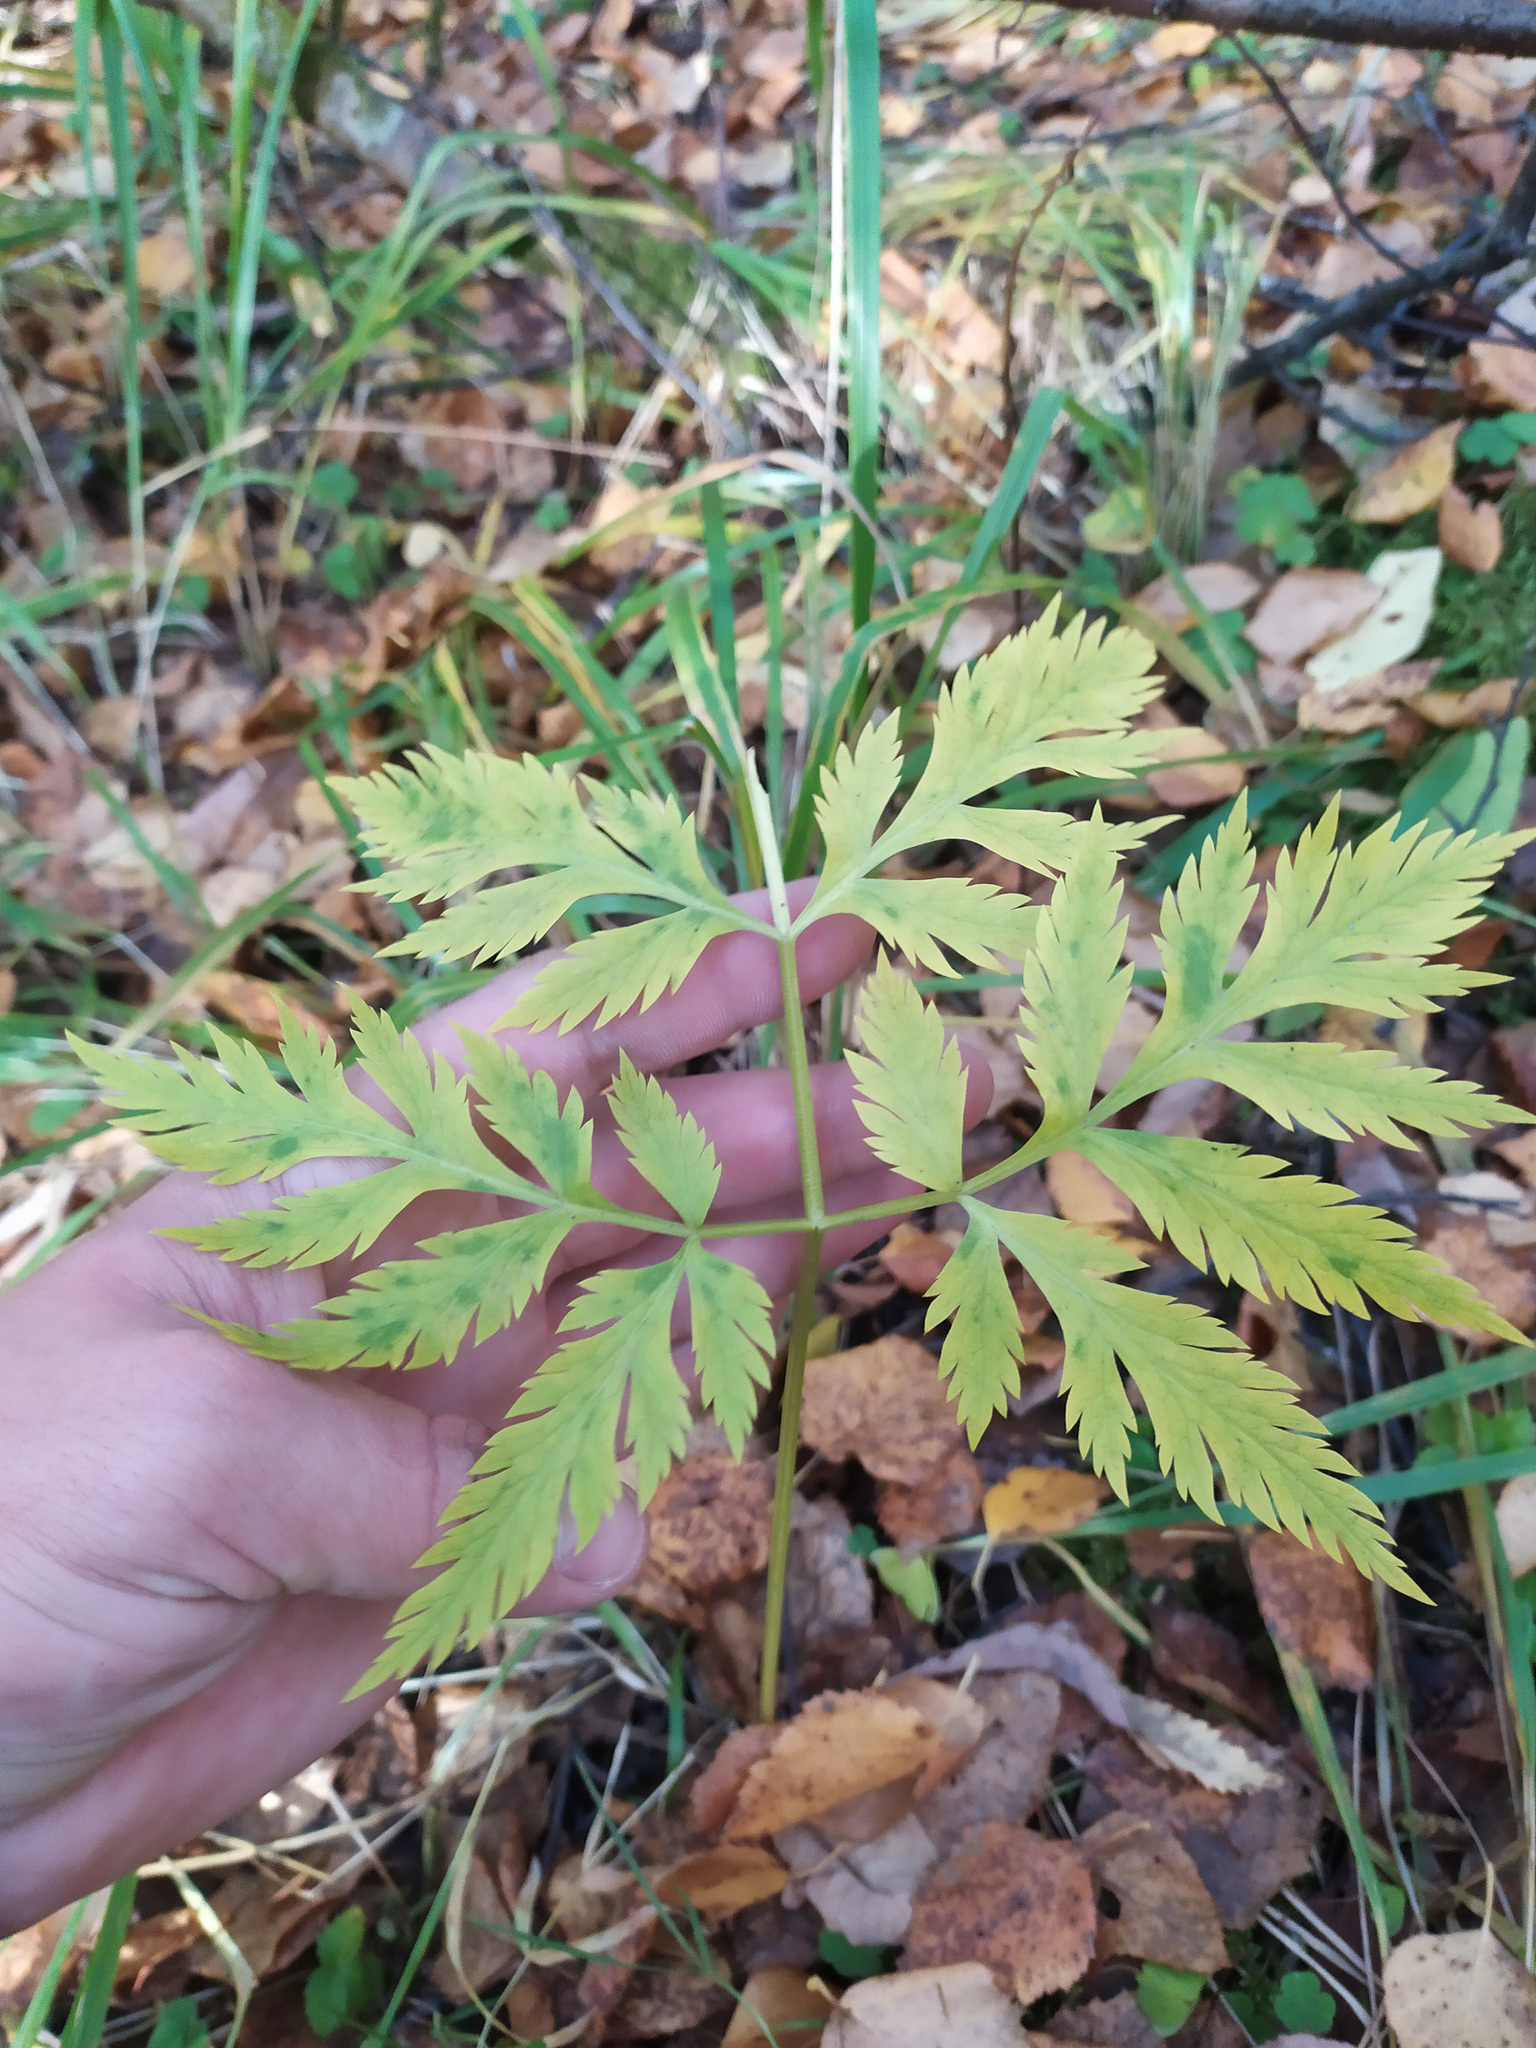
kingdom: Plantae
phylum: Tracheophyta
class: Magnoliopsida
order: Apiales
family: Apiaceae
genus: Pleurospermum
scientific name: Pleurospermum uralense
